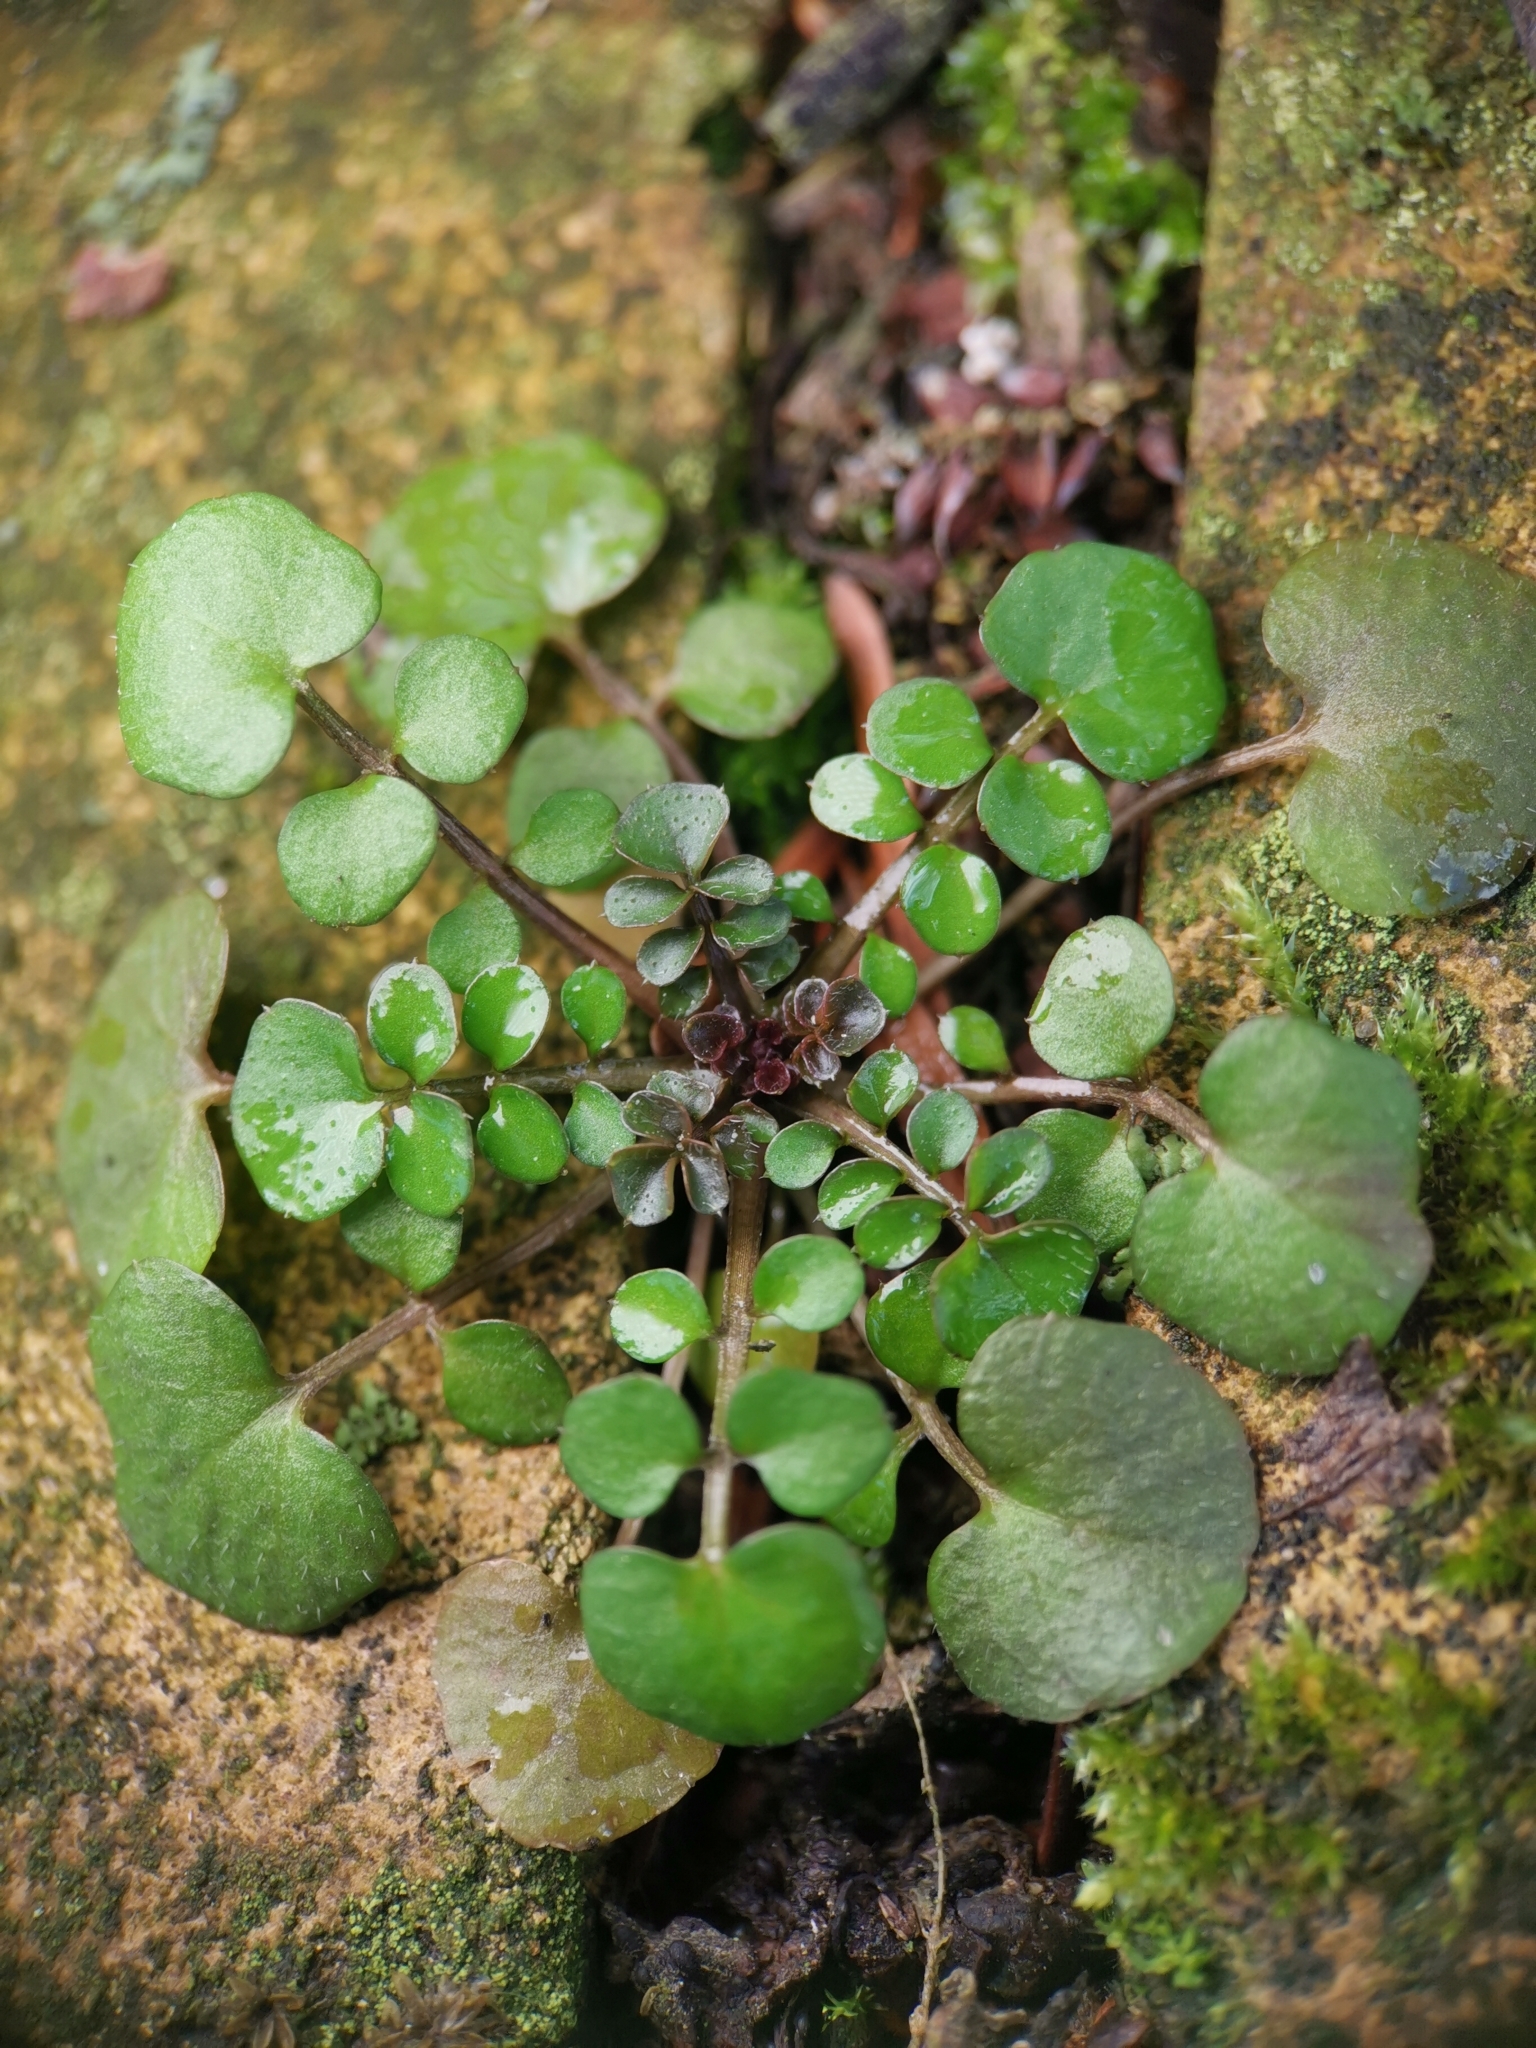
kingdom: Plantae
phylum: Tracheophyta
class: Magnoliopsida
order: Brassicales
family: Brassicaceae
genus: Cardamine
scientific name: Cardamine hirsuta
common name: Hairy bittercress
